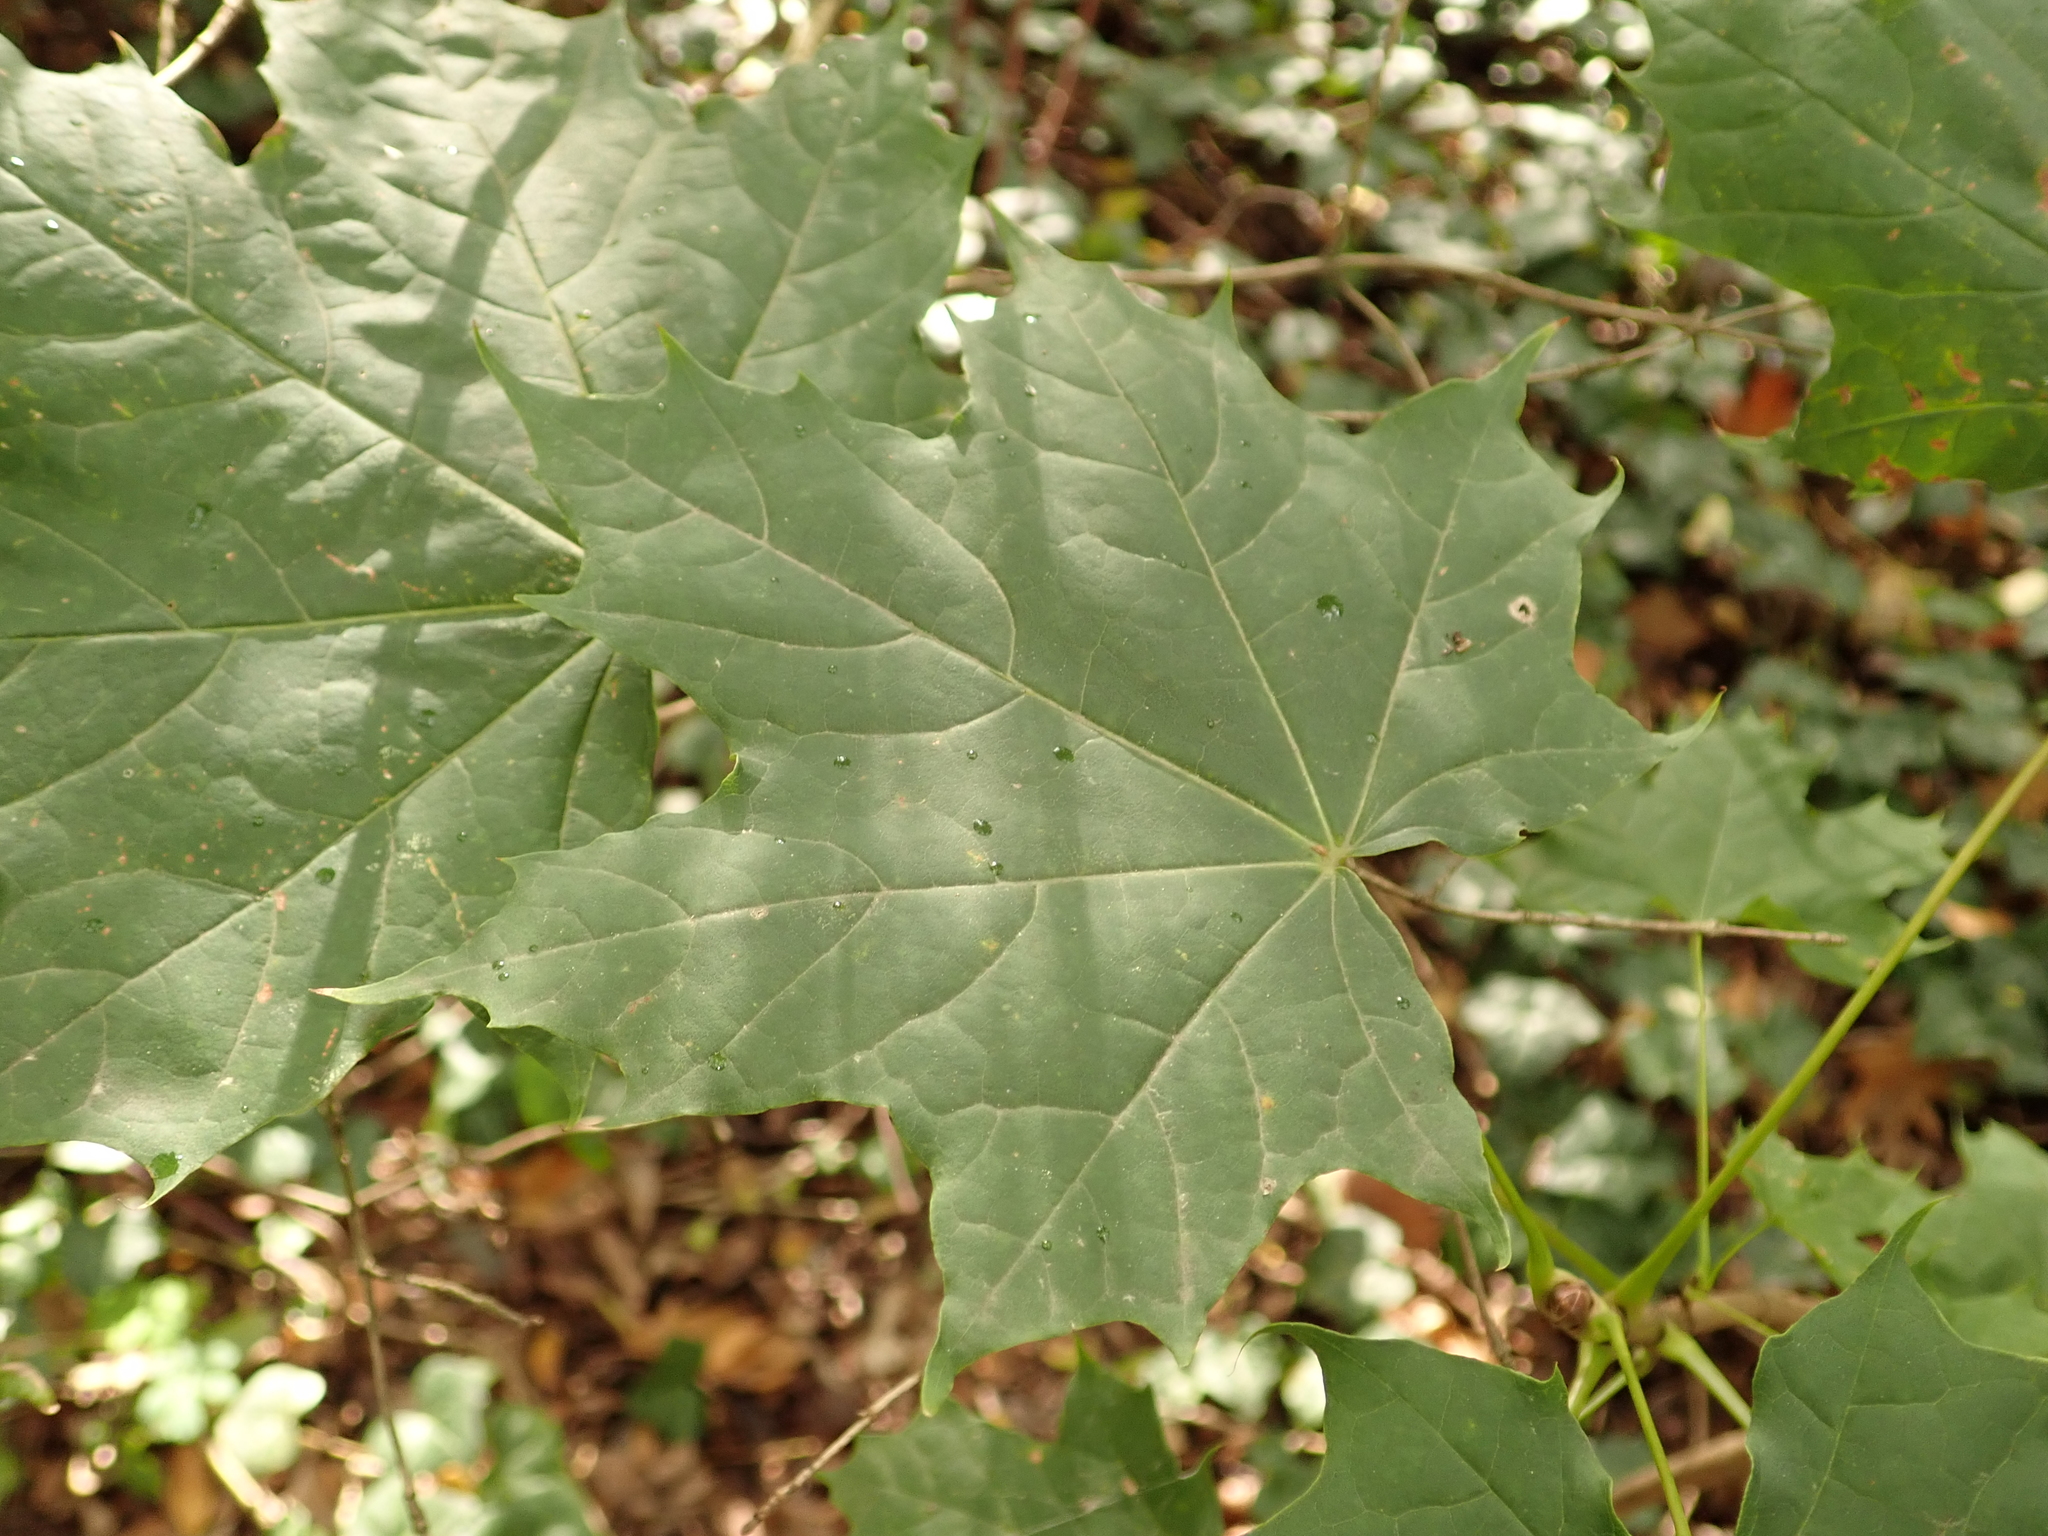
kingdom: Plantae
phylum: Tracheophyta
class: Magnoliopsida
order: Sapindales
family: Sapindaceae
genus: Acer
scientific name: Acer platanoides
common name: Norway maple
